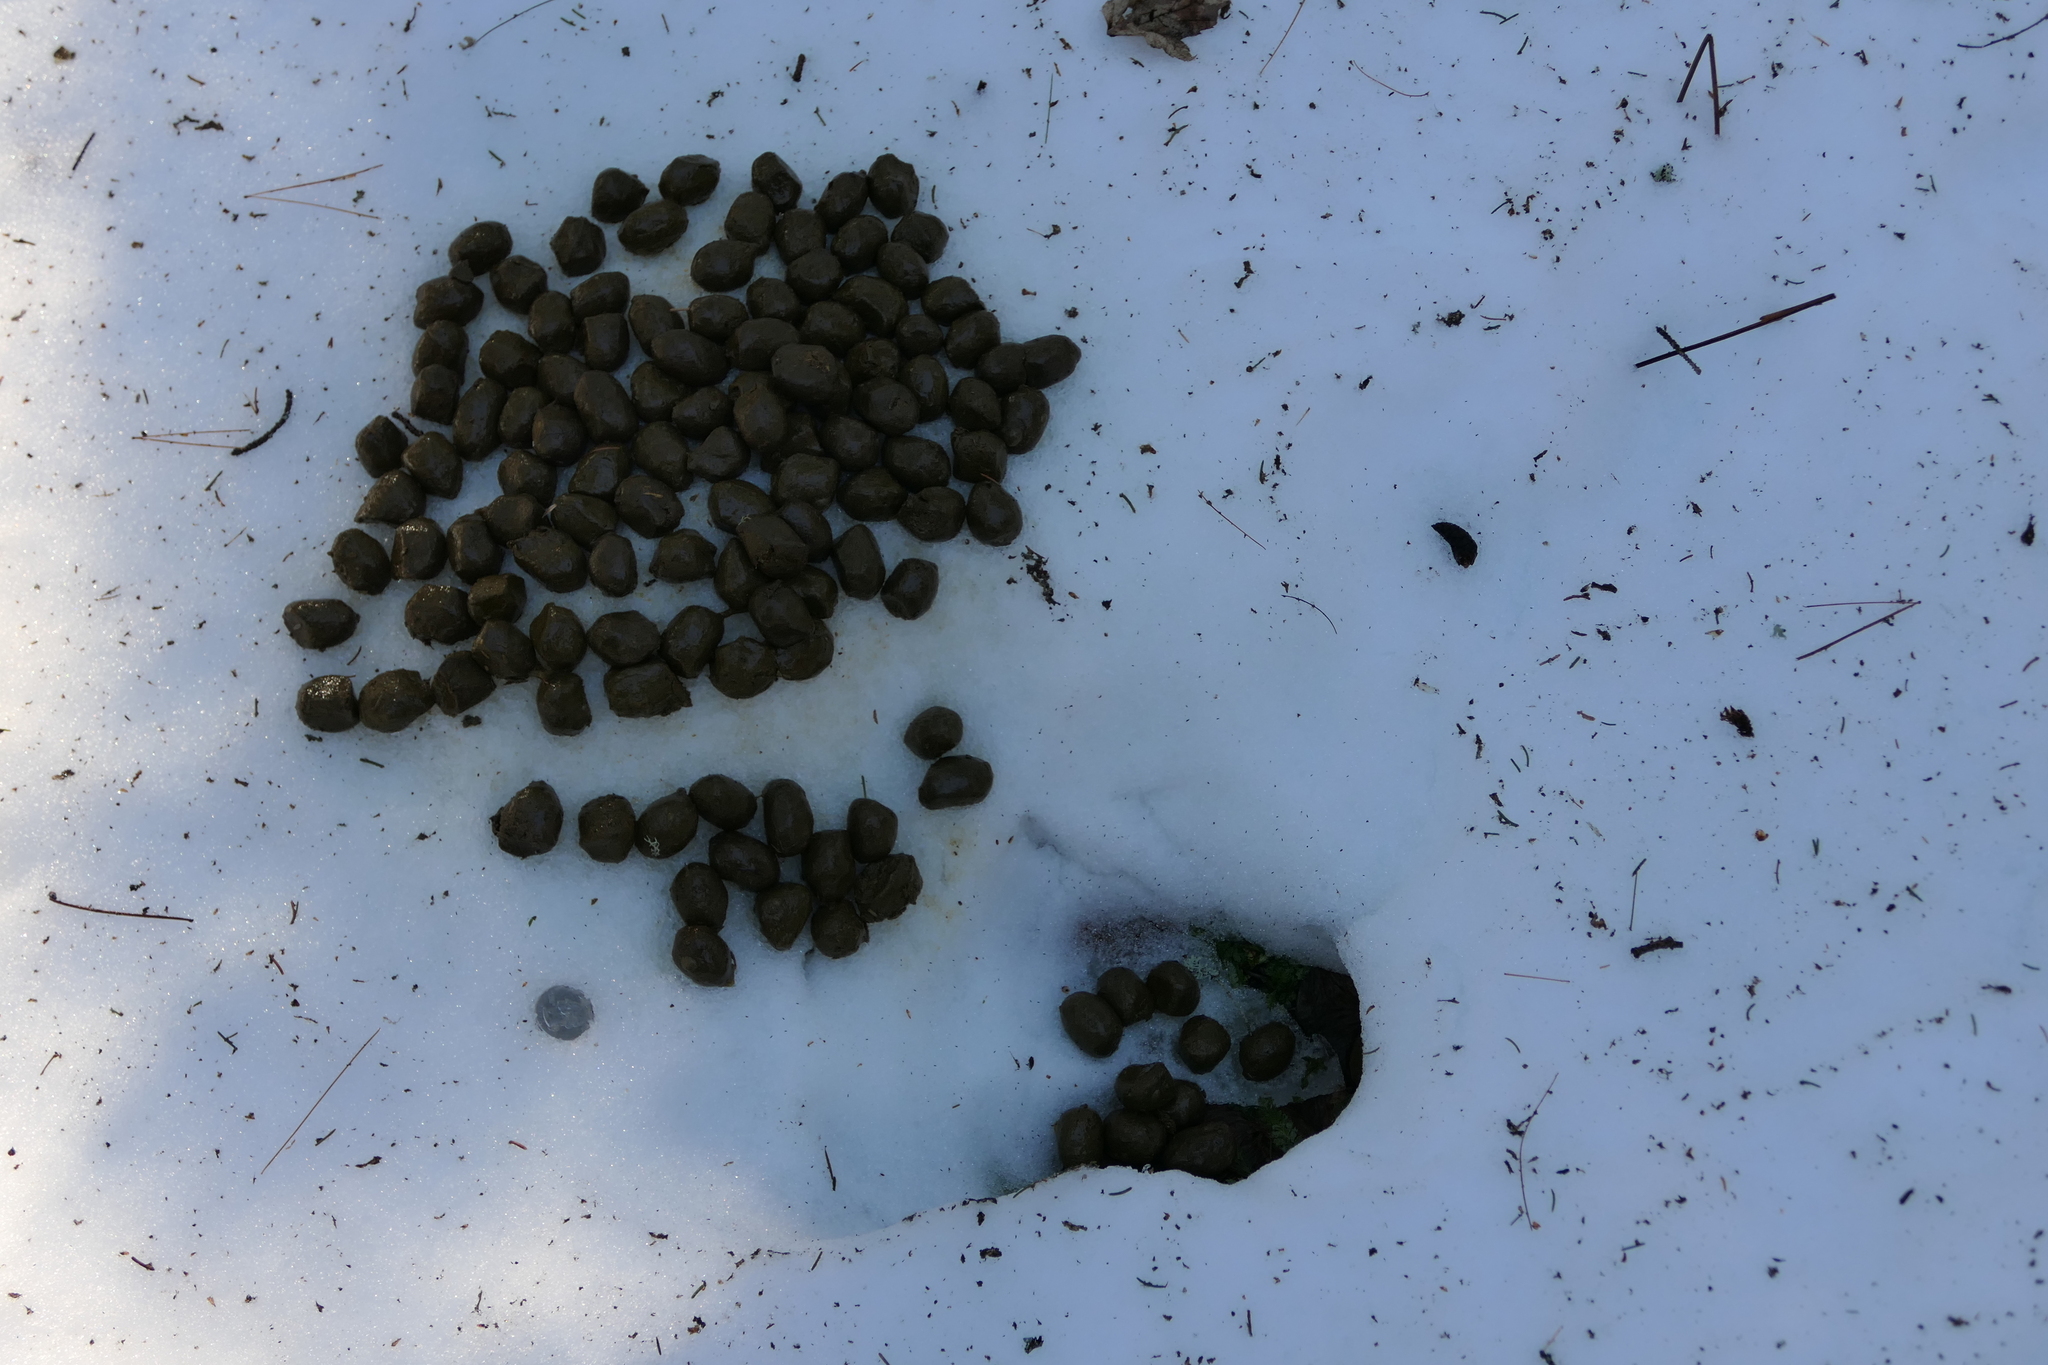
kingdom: Animalia
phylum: Chordata
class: Mammalia
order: Artiodactyla
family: Cervidae
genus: Alces
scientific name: Alces alces
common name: Moose
